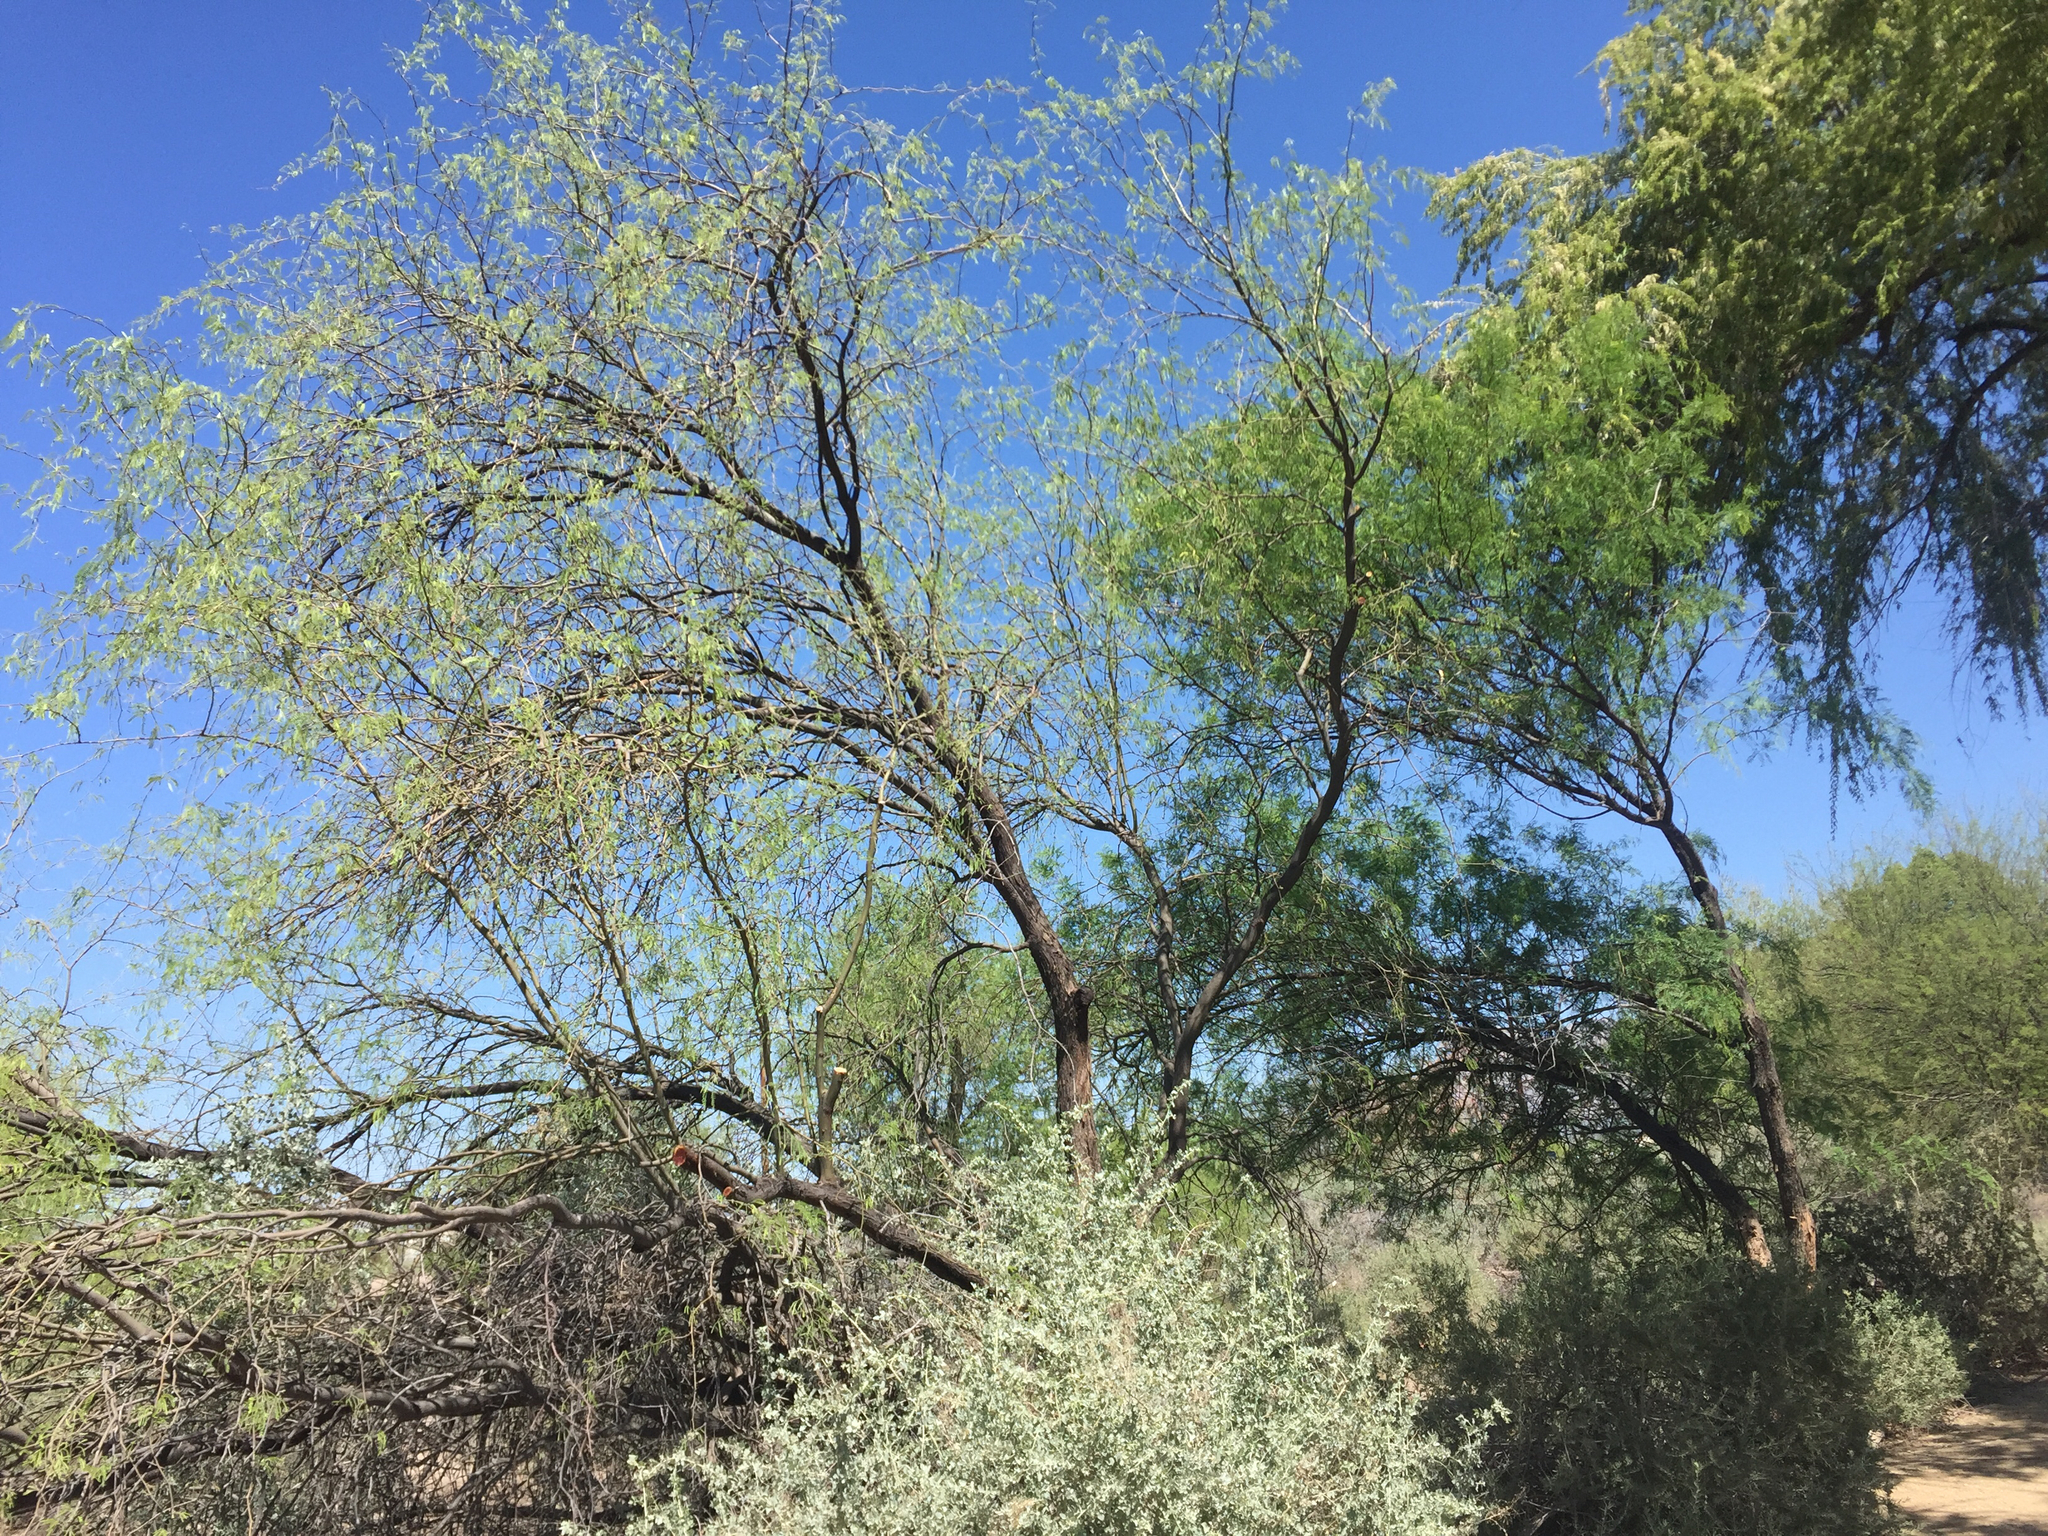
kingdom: Plantae
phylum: Tracheophyta
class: Magnoliopsida
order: Fabales
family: Fabaceae
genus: Prosopis
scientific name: Prosopis velutina
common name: Velvet mesquite
